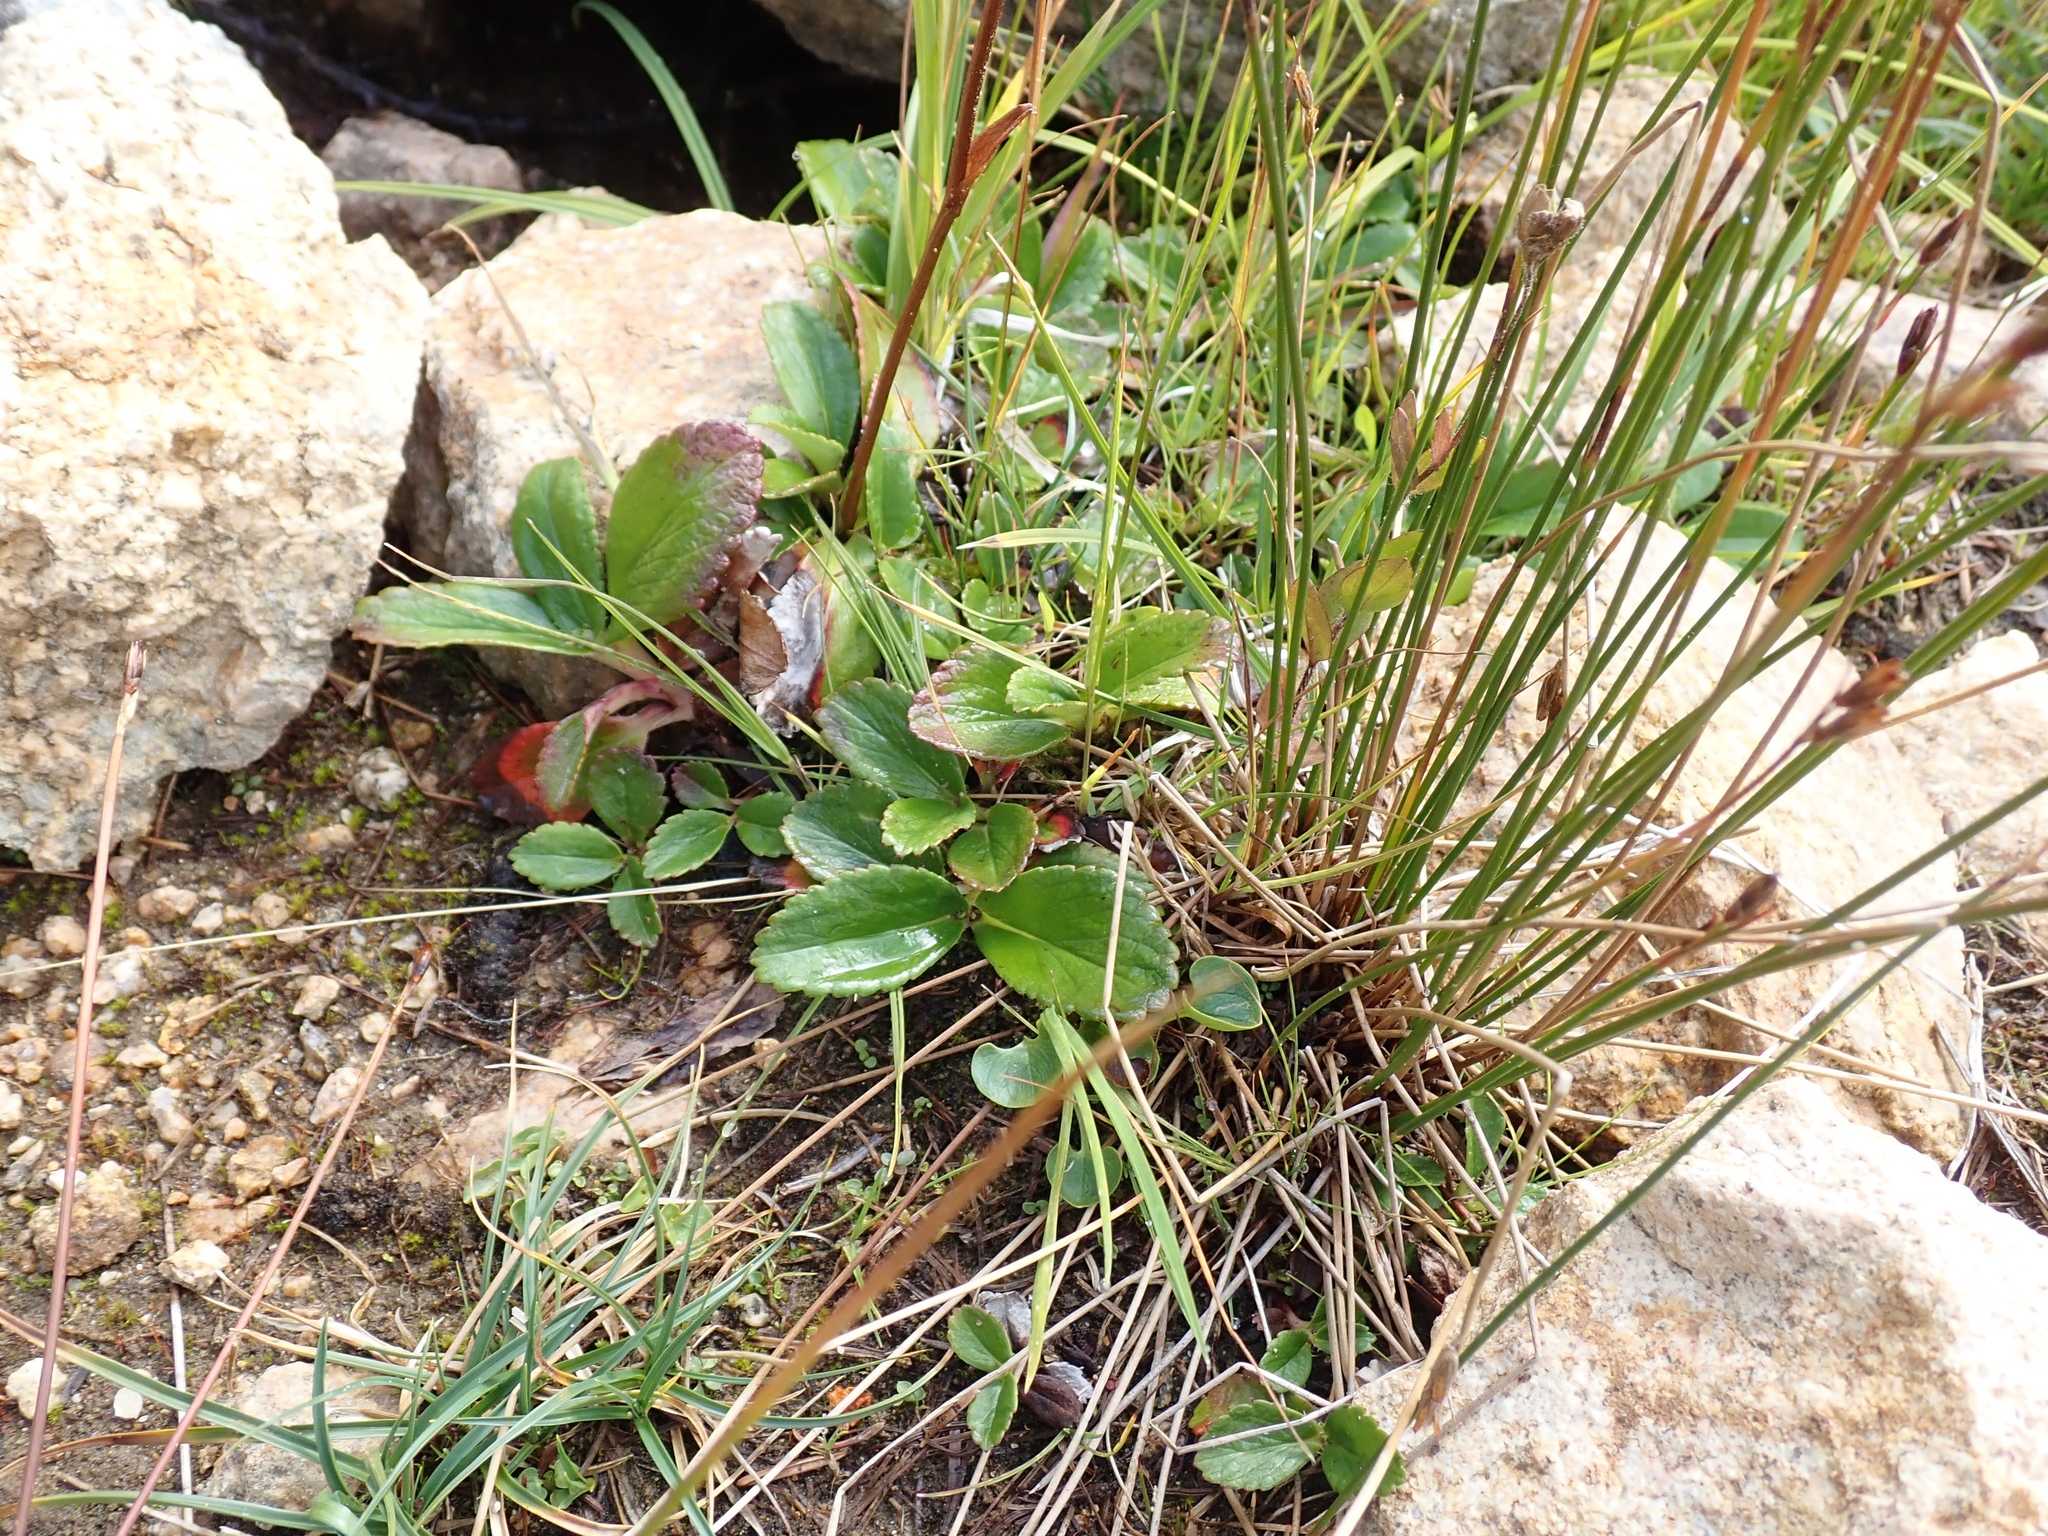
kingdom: Plantae
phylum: Tracheophyta
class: Magnoliopsida
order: Saxifragales
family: Saxifragaceae
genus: Leptarrhena
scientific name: Leptarrhena pyrolifolia
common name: Leatherleaf-saxifrage
